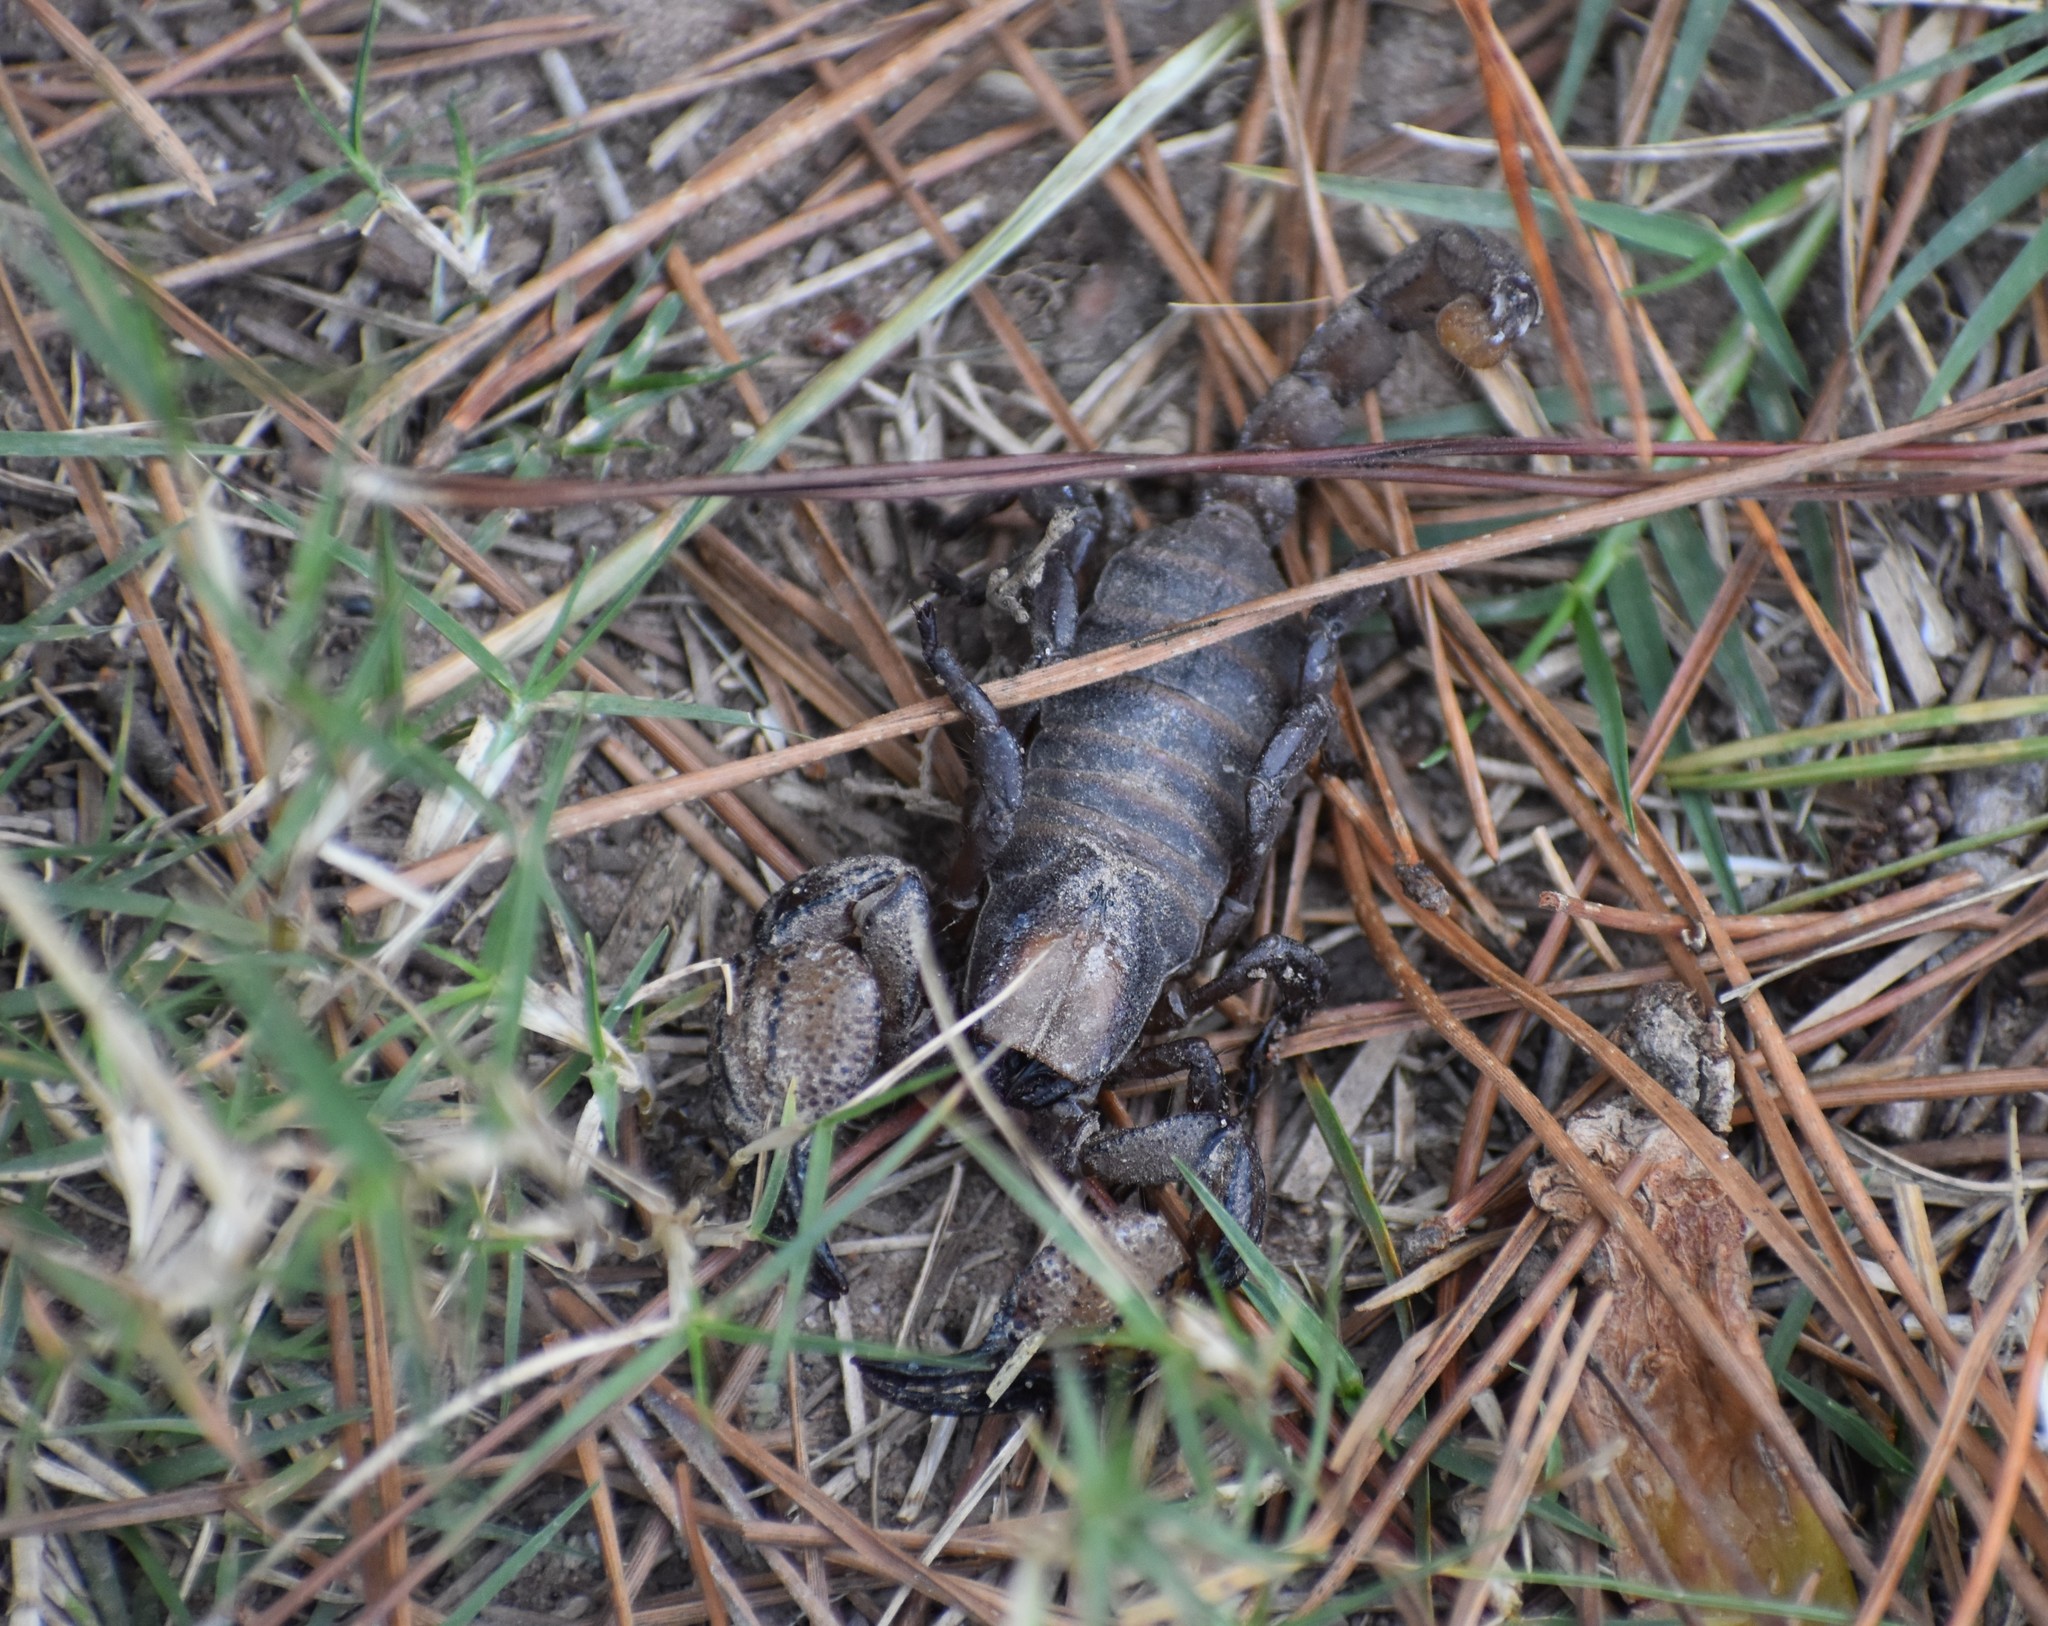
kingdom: Animalia
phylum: Arthropoda
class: Arachnida
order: Scorpiones
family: Scorpionidae
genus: Opistophthalmus
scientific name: Opistophthalmus macer
